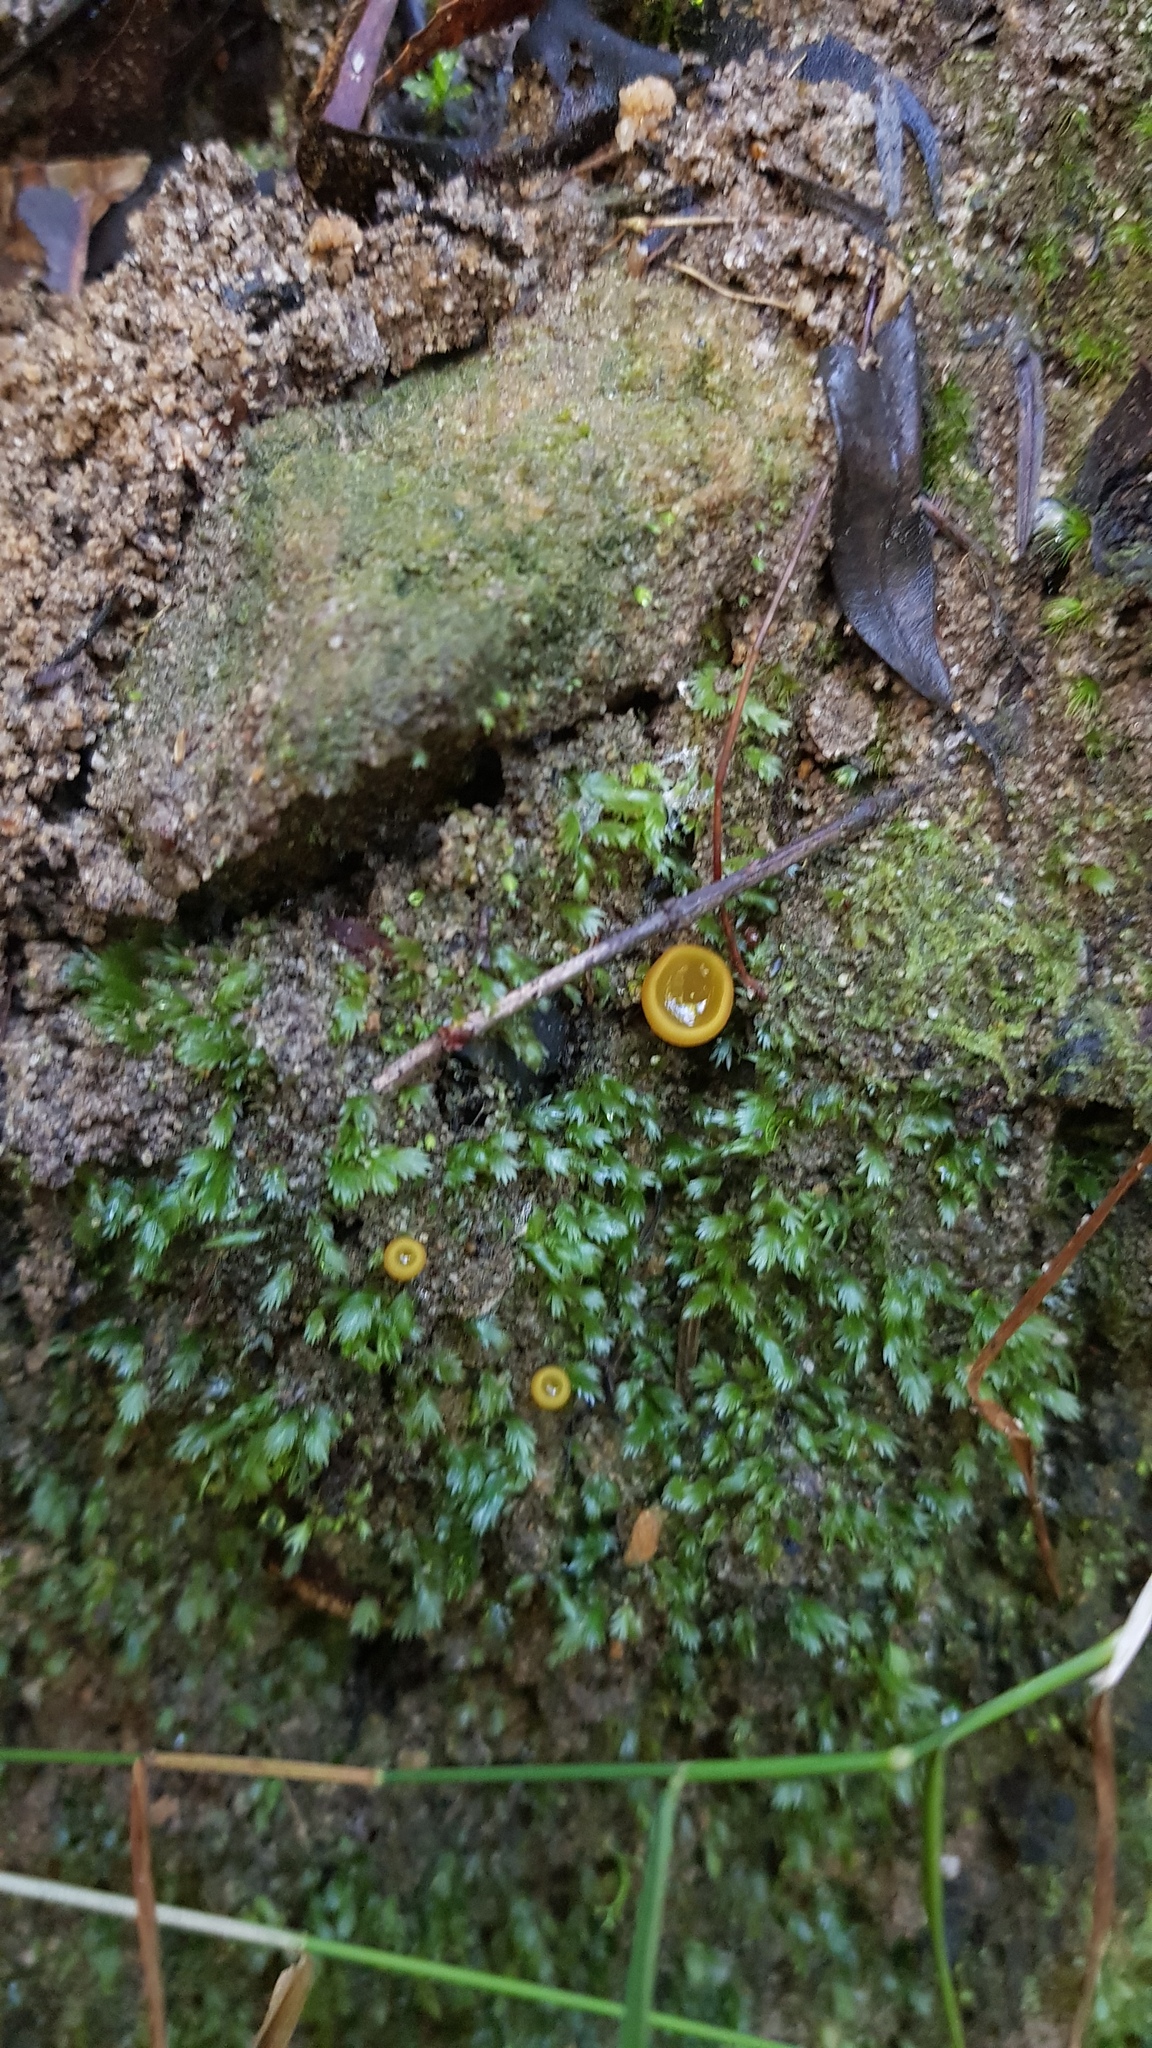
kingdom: Fungi
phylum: Ascomycota
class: Pezizomycetes
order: Pezizales
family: Pyronemataceae
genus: Aleurina
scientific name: Aleurina ferruginea
